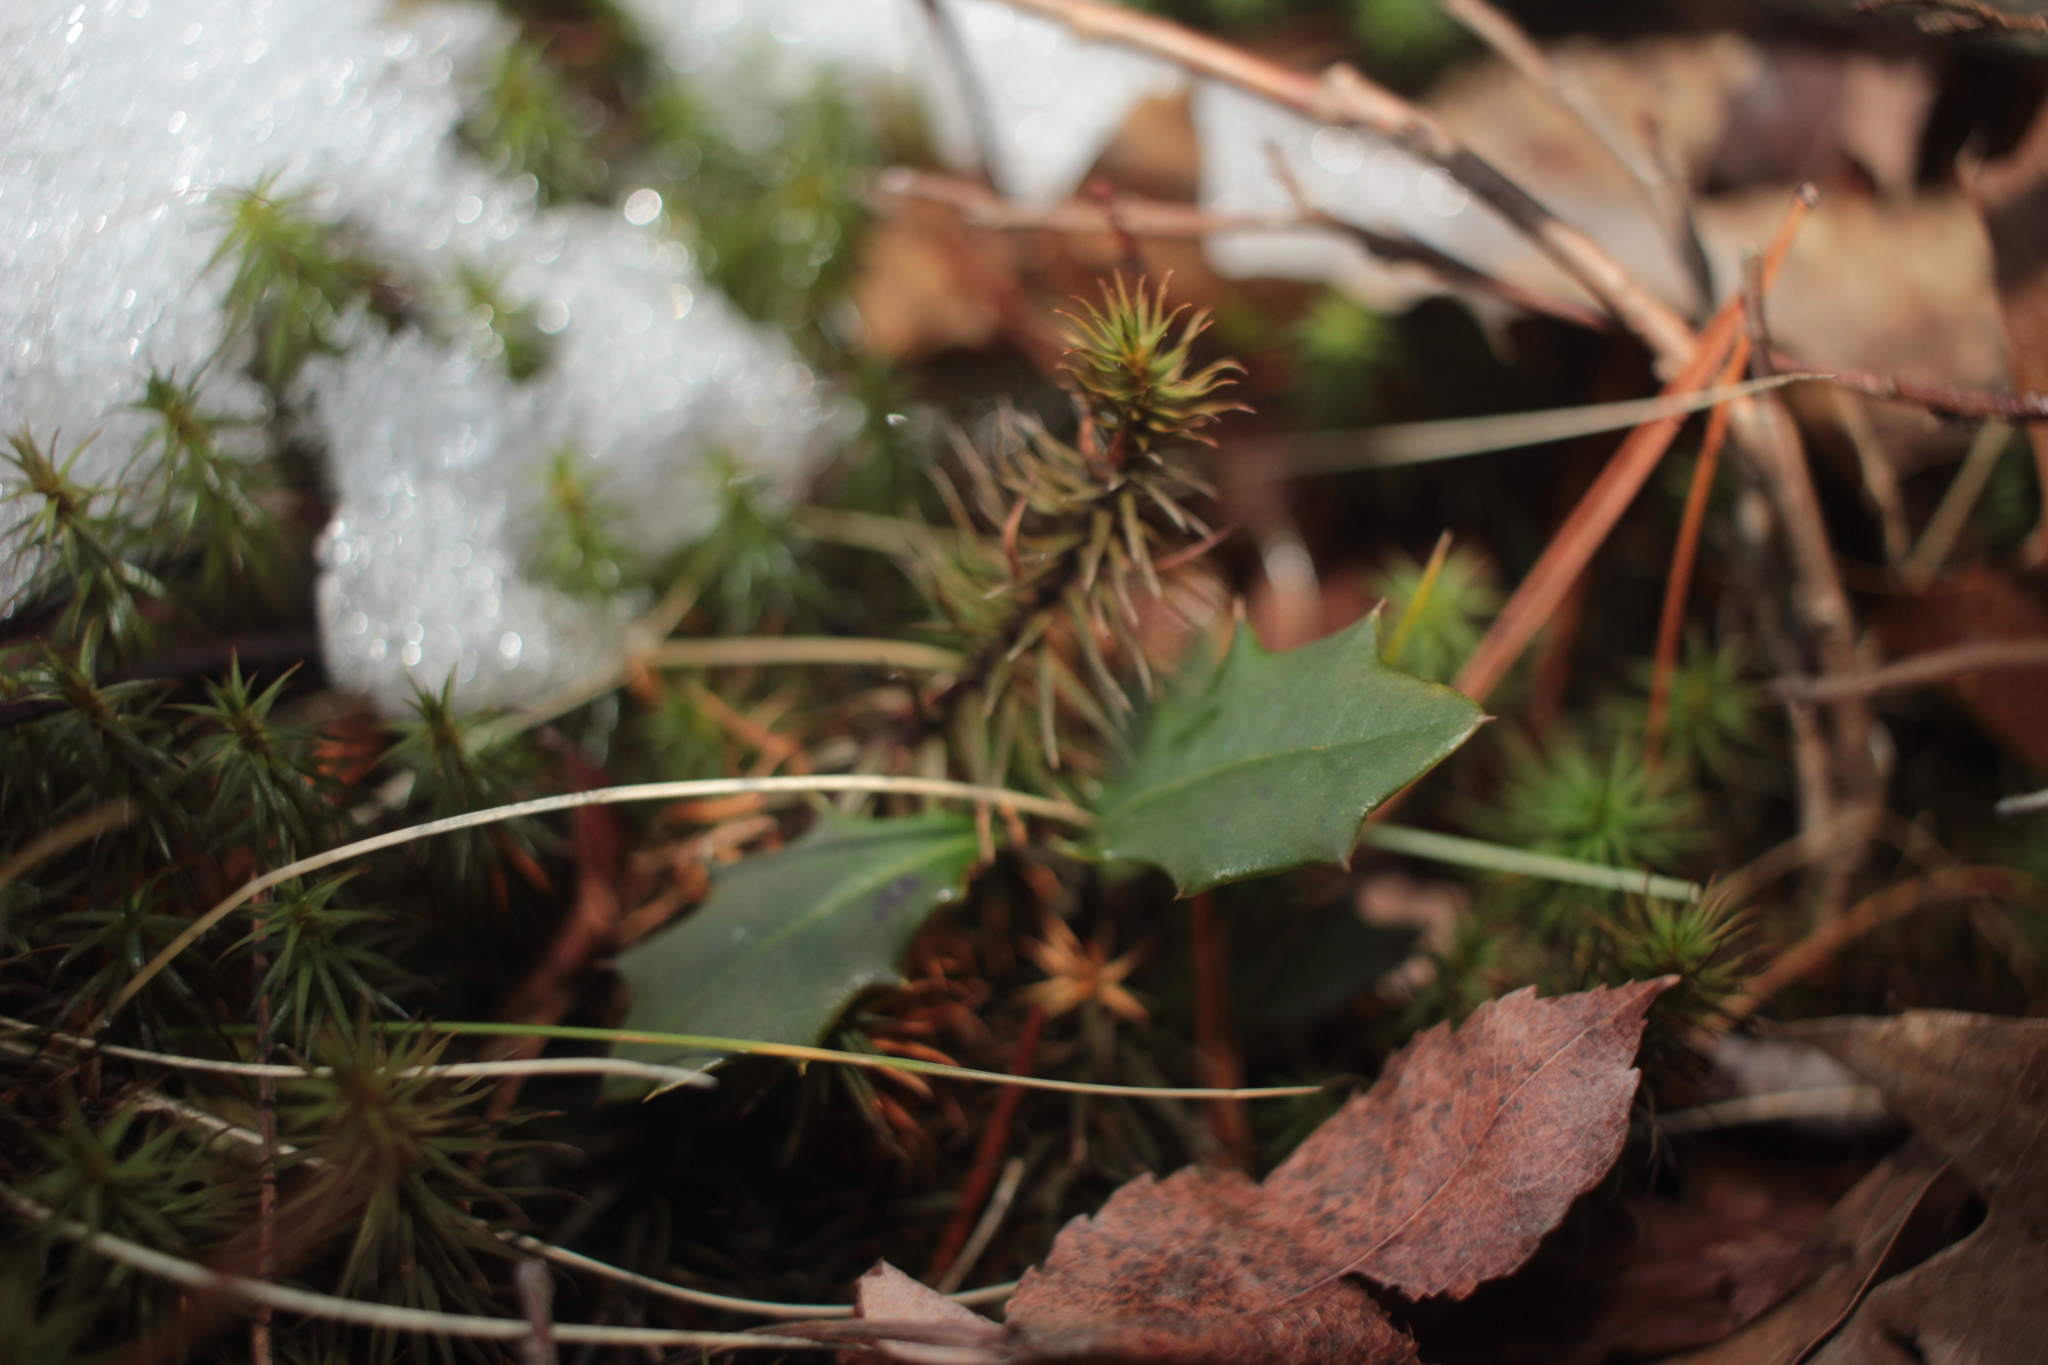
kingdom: Plantae
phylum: Tracheophyta
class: Magnoliopsida
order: Aquifoliales
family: Aquifoliaceae
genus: Ilex
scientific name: Ilex opaca
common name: American holly
